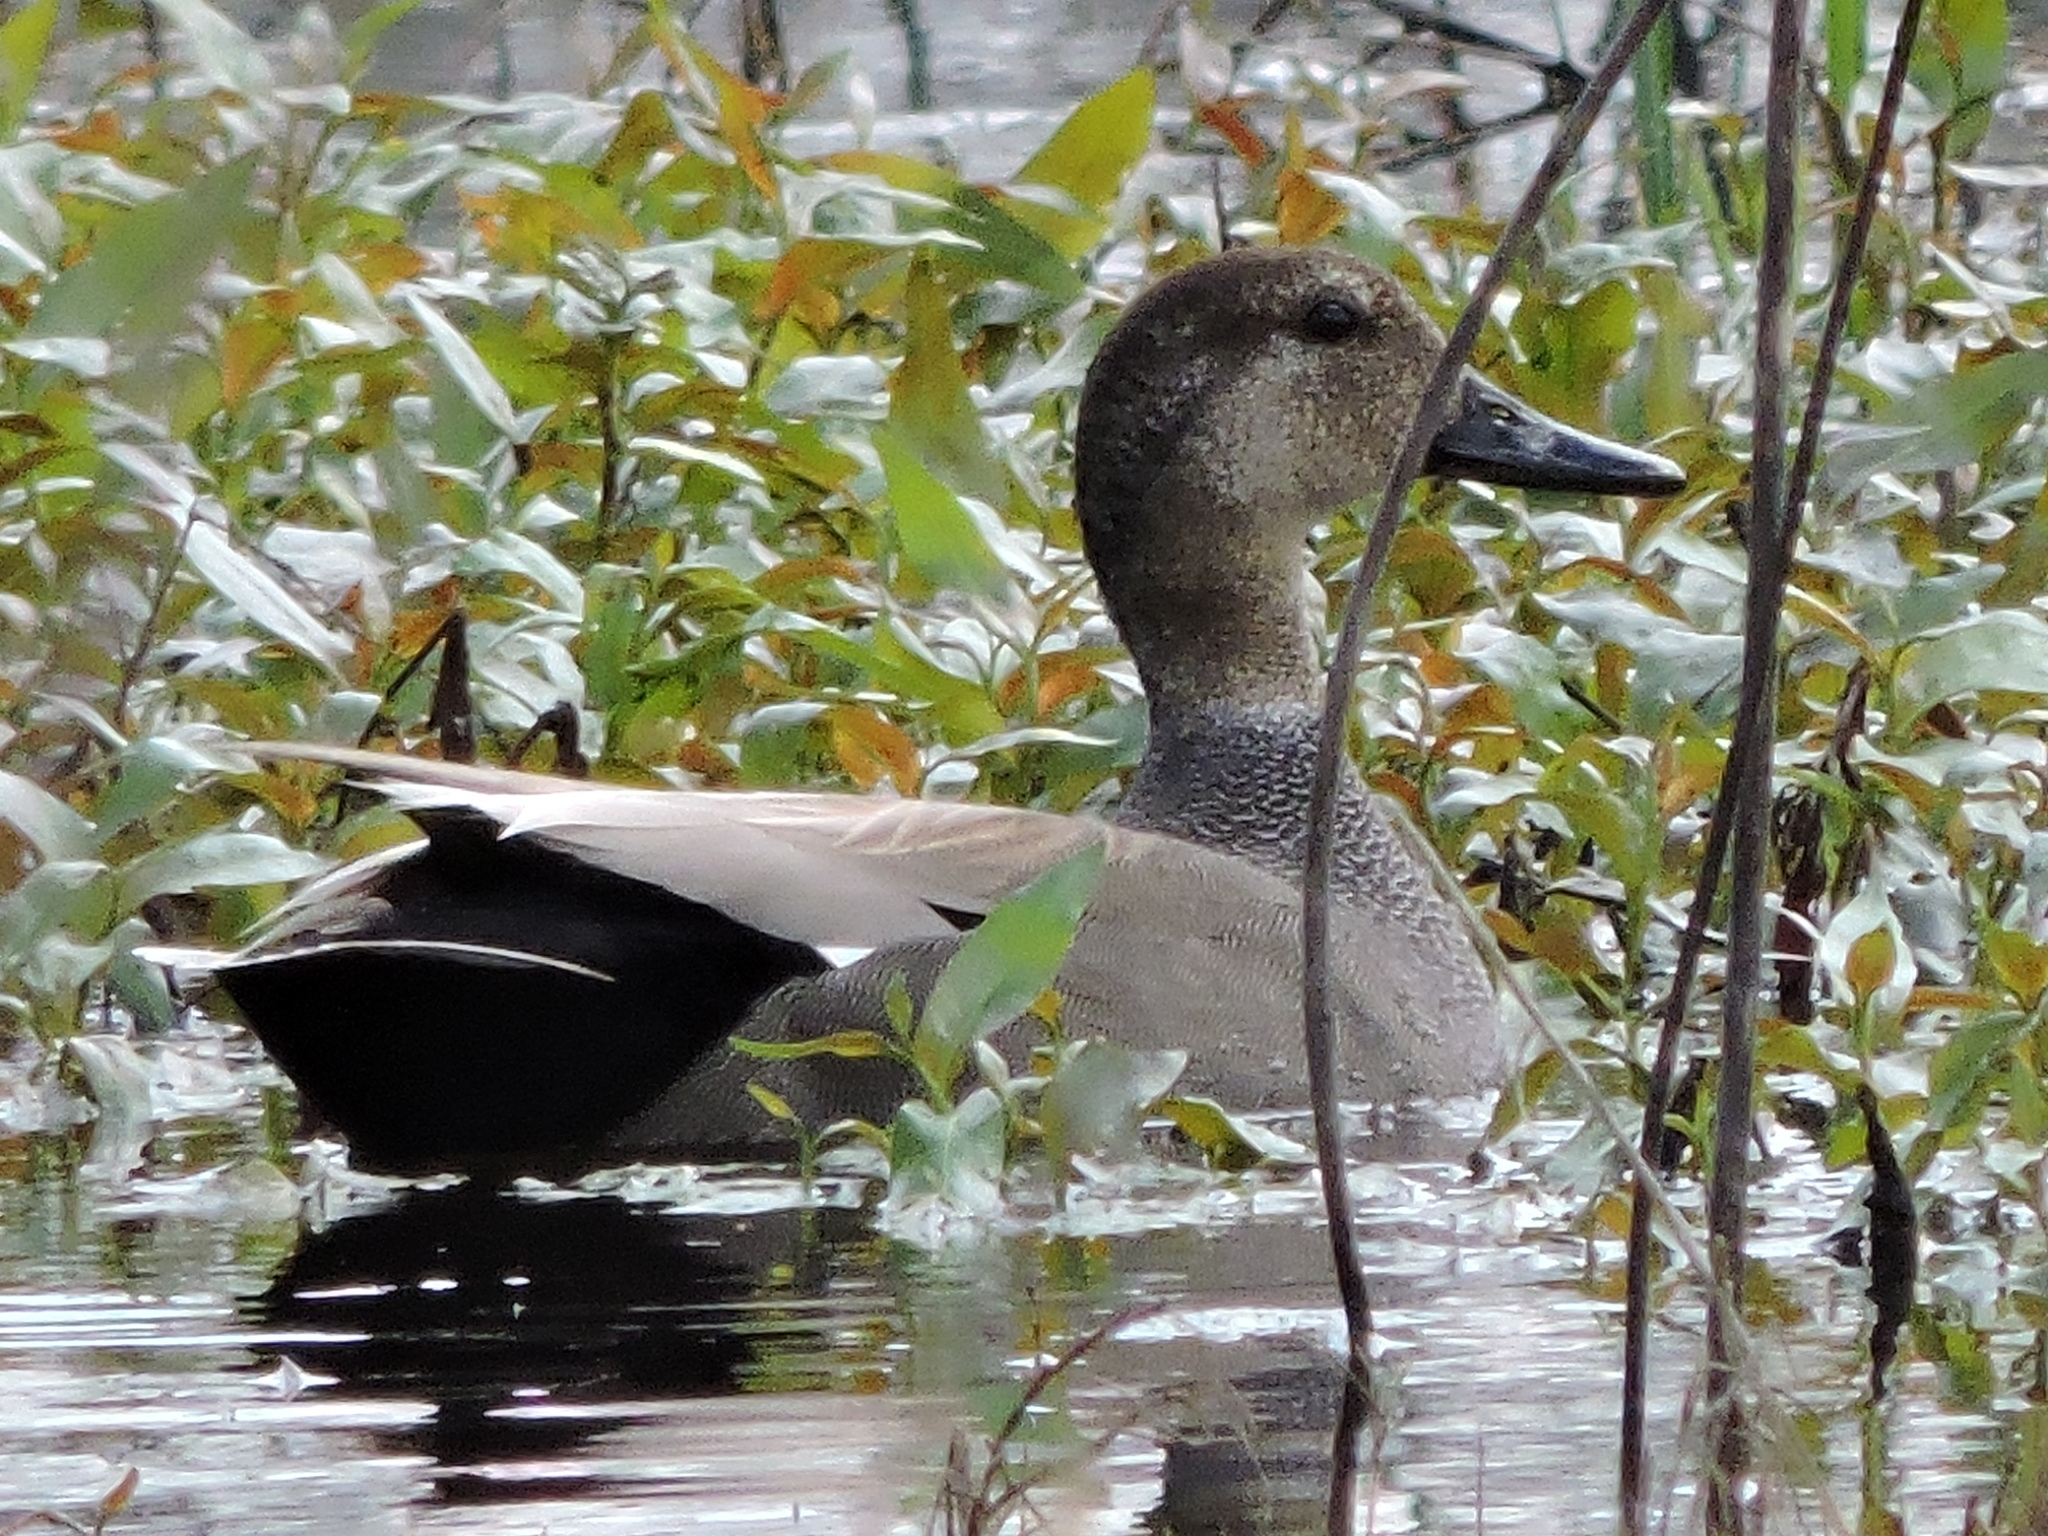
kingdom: Animalia
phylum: Chordata
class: Aves
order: Anseriformes
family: Anatidae
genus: Mareca
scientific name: Mareca strepera
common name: Gadwall
